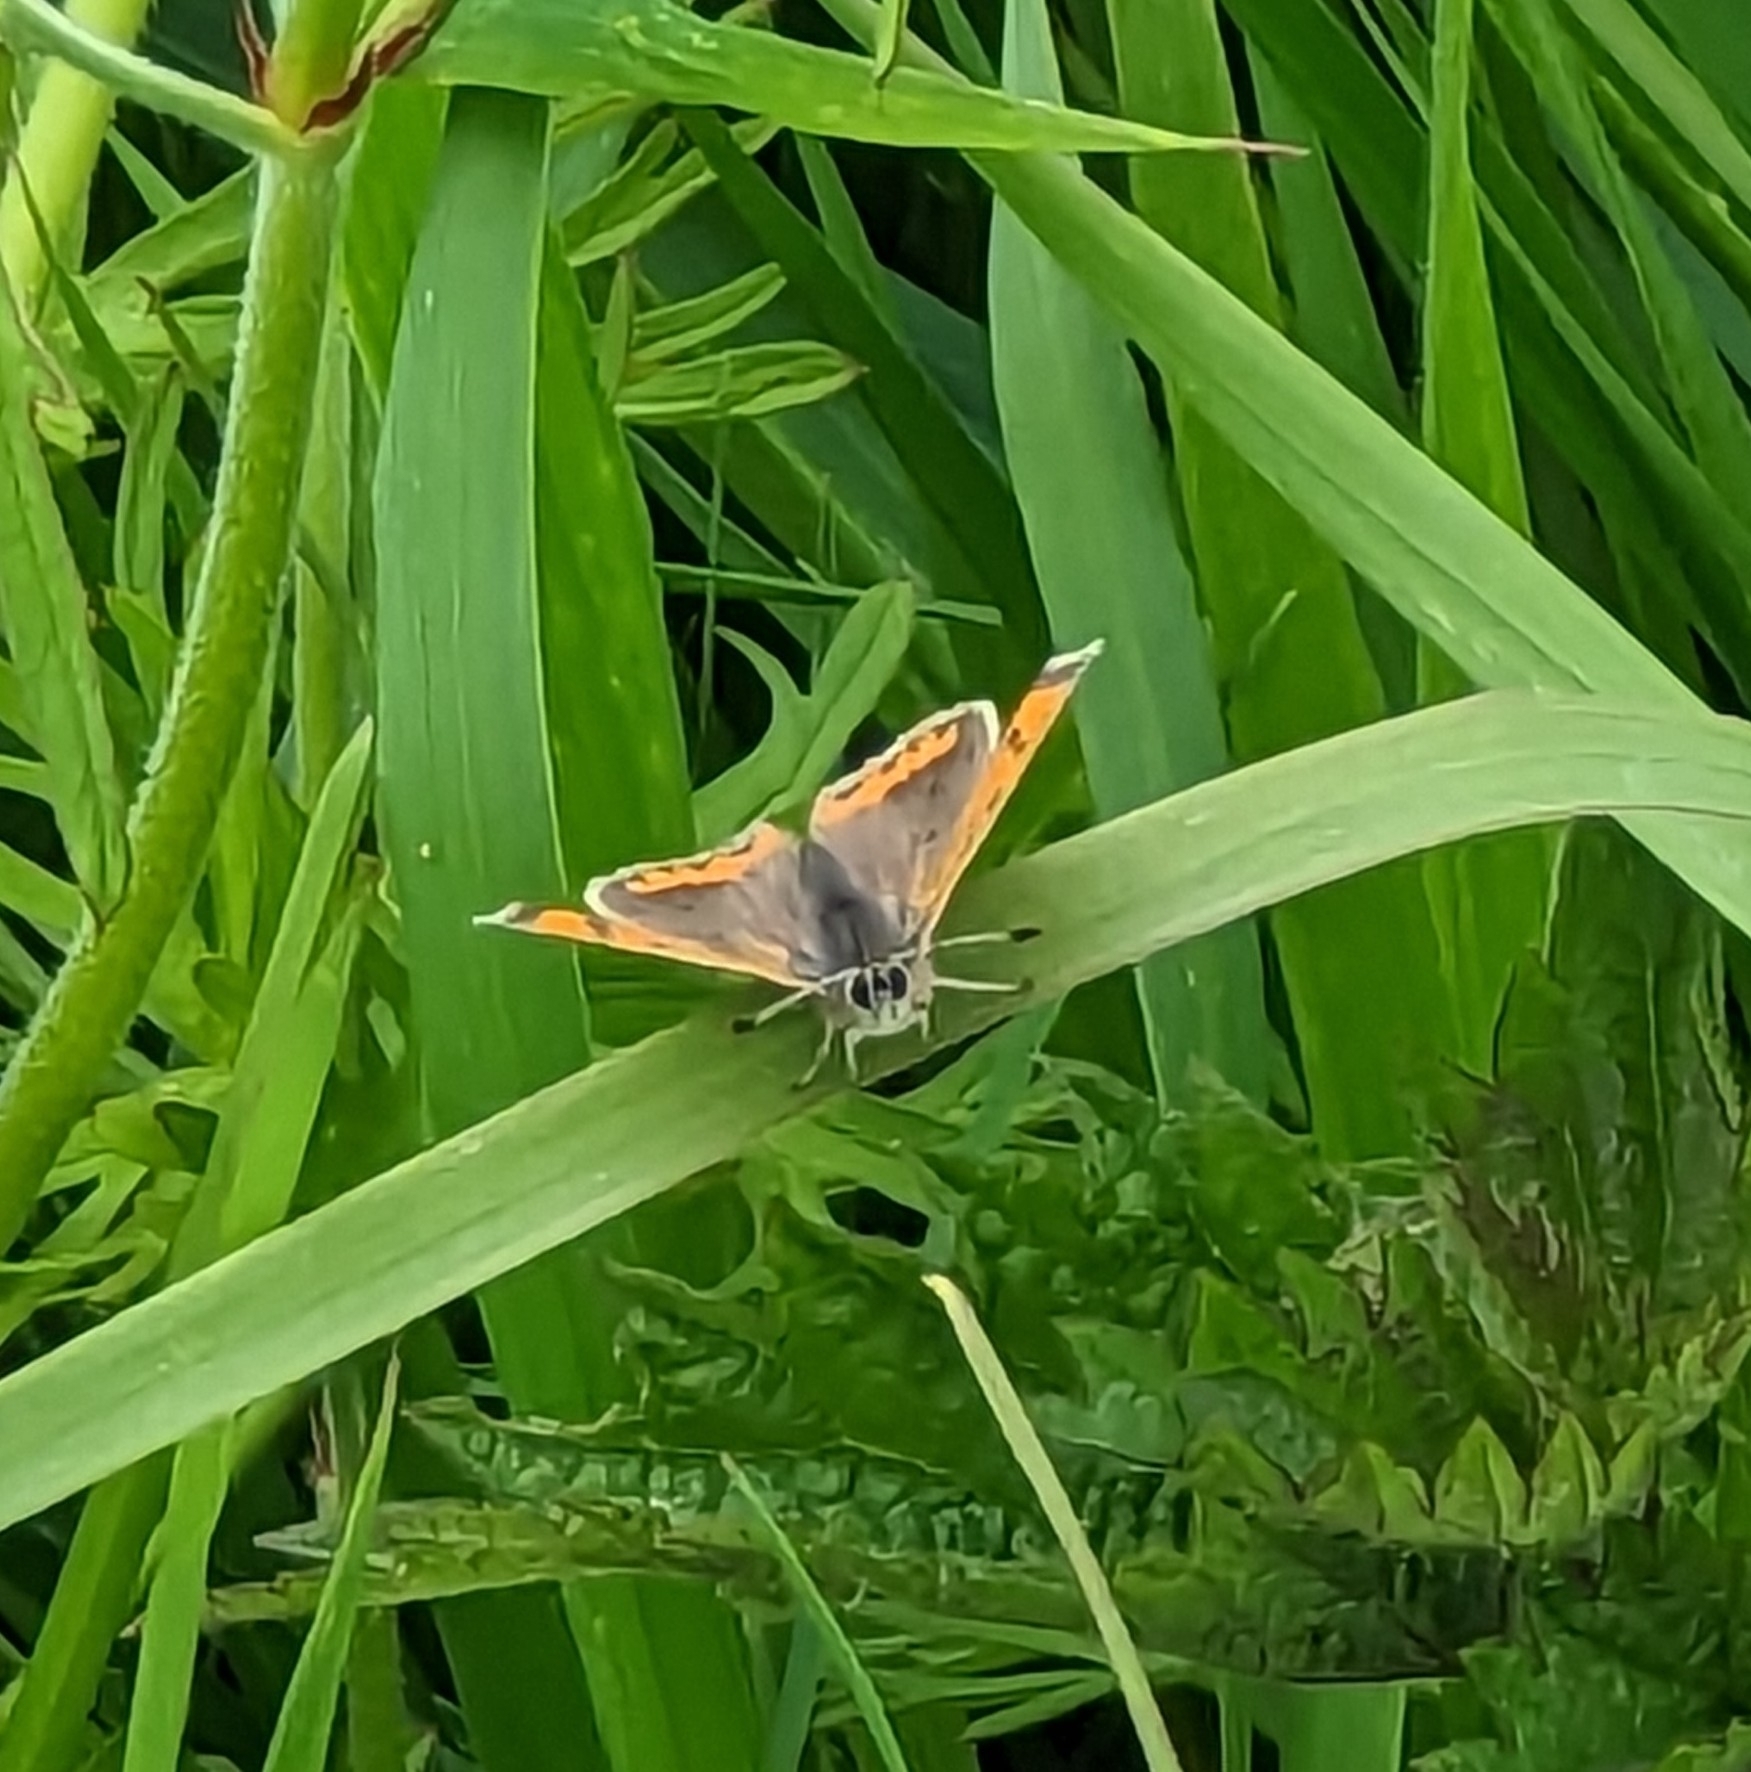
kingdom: Animalia
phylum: Arthropoda
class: Insecta
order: Lepidoptera
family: Lycaenidae
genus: Lycaena
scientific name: Lycaena phlaeas
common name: Small copper
